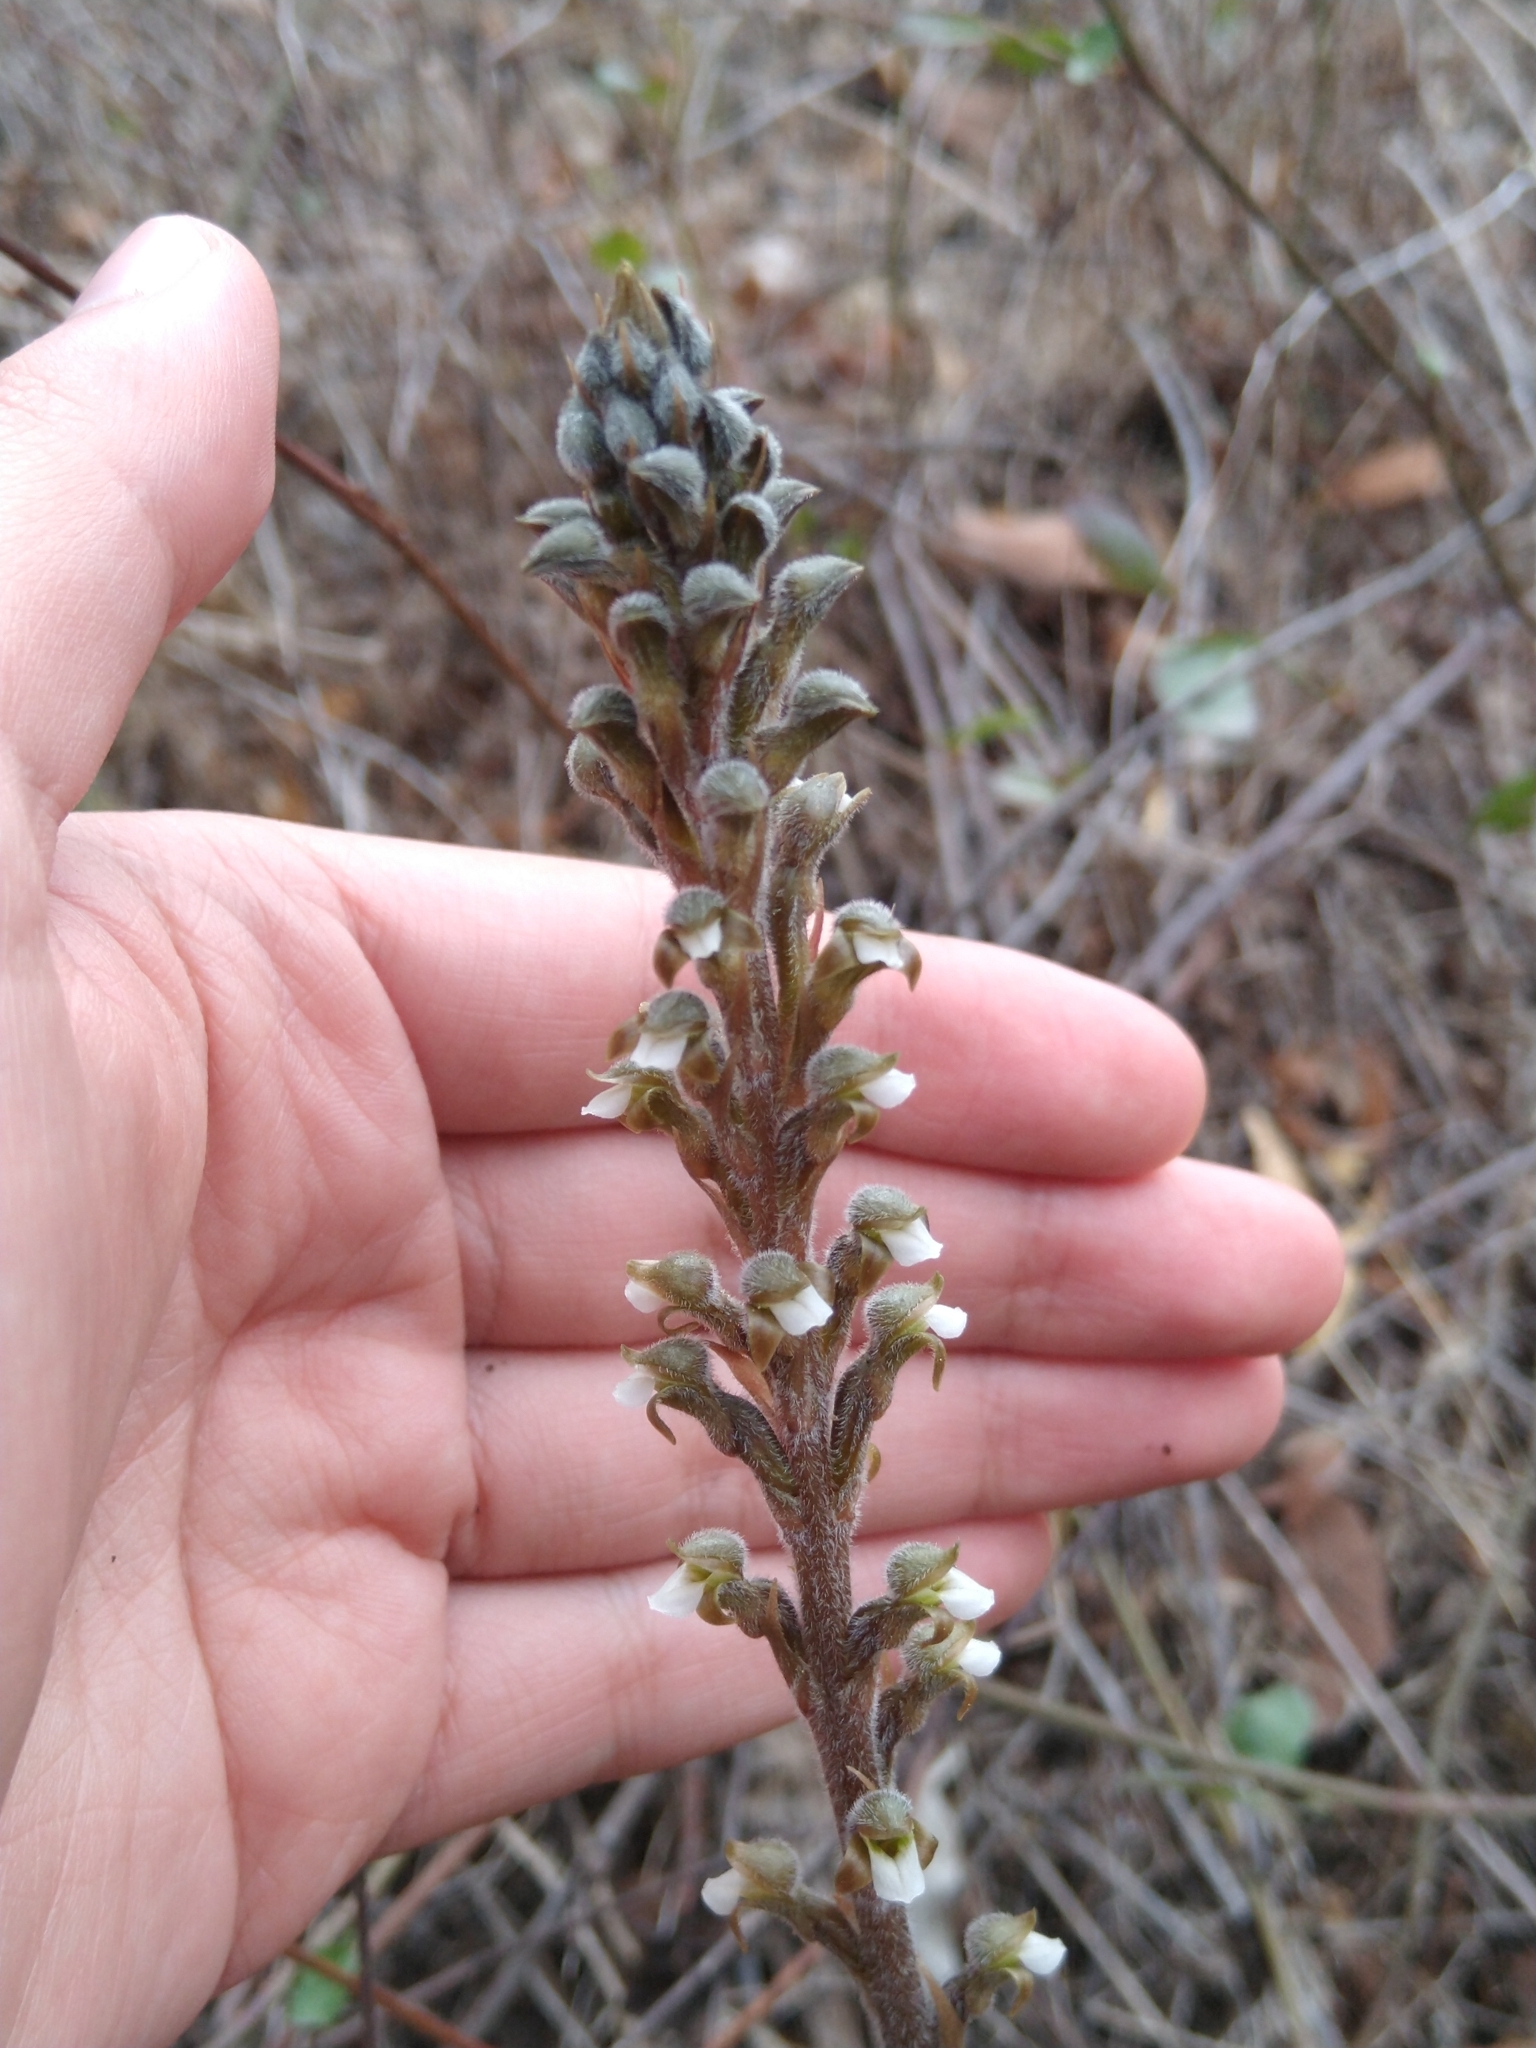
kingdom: Plantae
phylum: Tracheophyta
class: Liliopsida
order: Asparagales
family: Orchidaceae
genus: Sarcoglottis
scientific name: Sarcoglottis schaffneri
